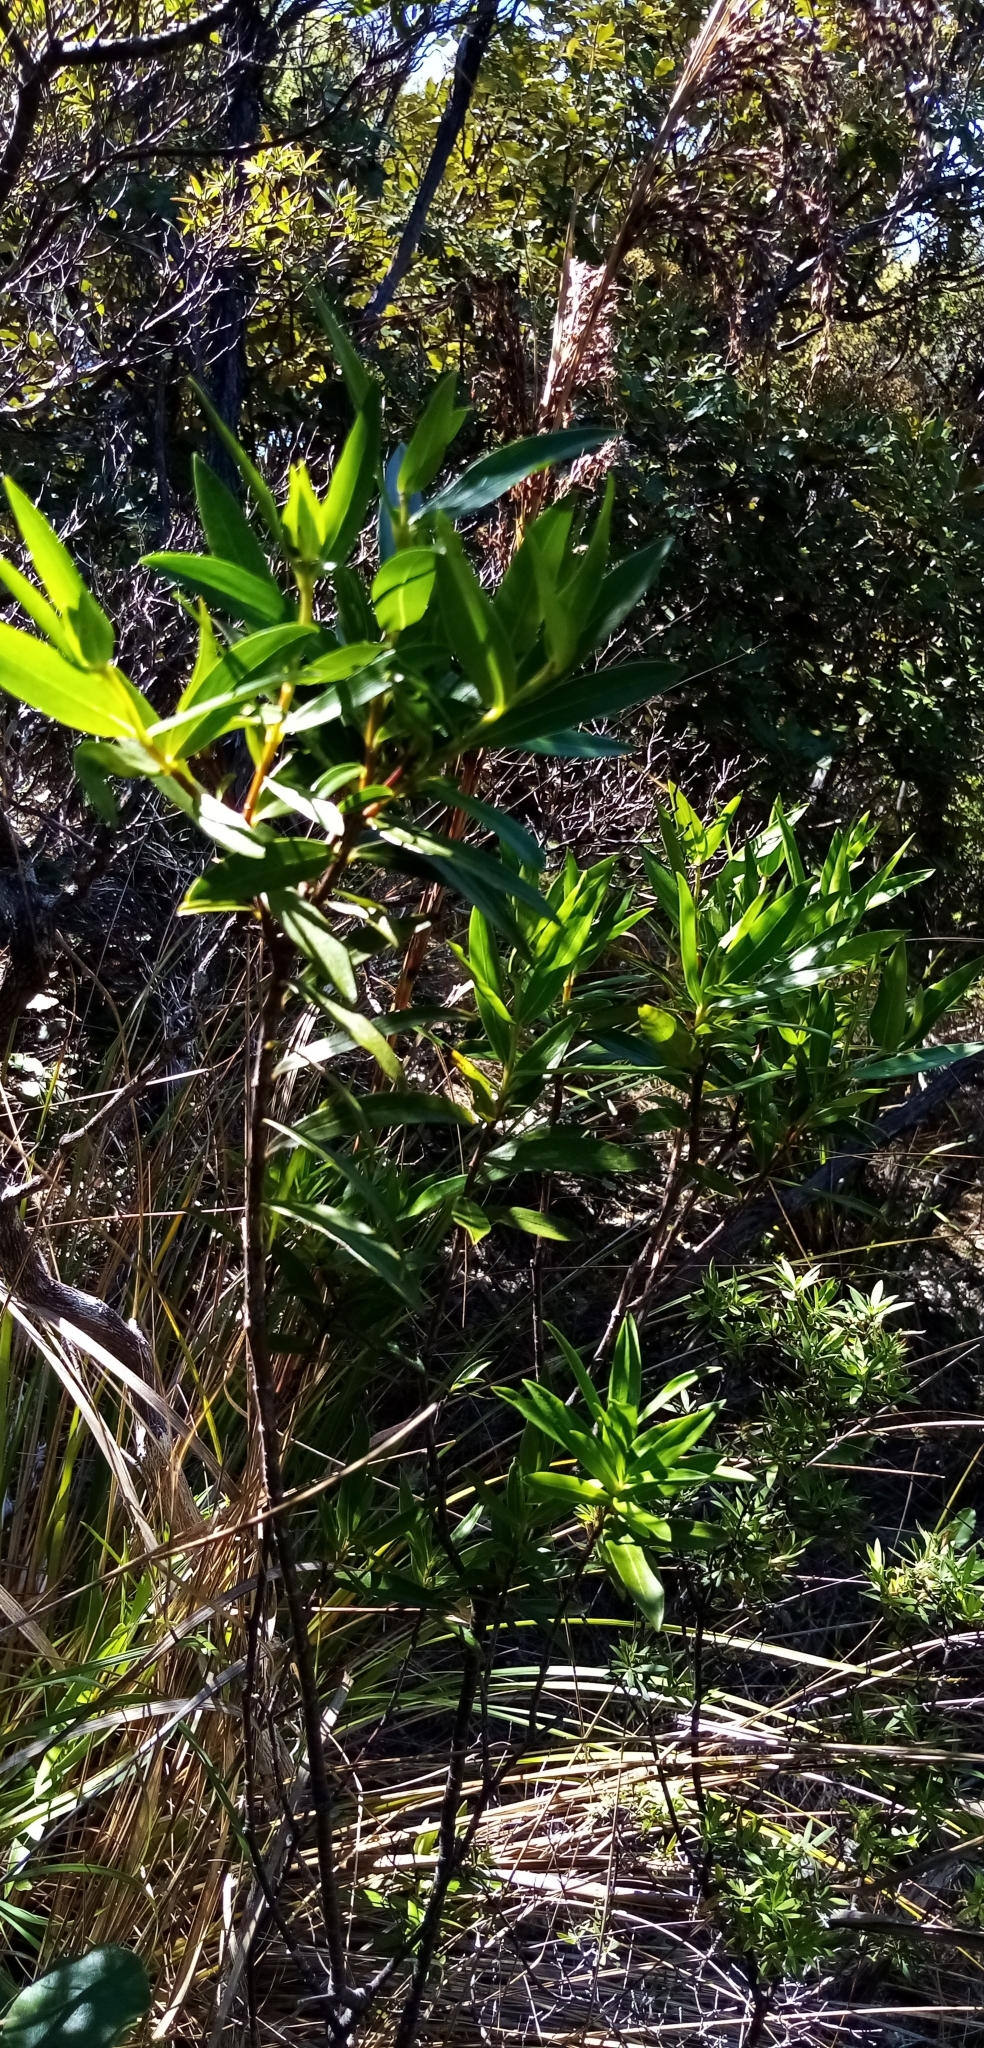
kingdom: Plantae
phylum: Tracheophyta
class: Magnoliopsida
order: Malvales
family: Thymelaeaceae
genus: Pimelea
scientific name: Pimelea longifolia
